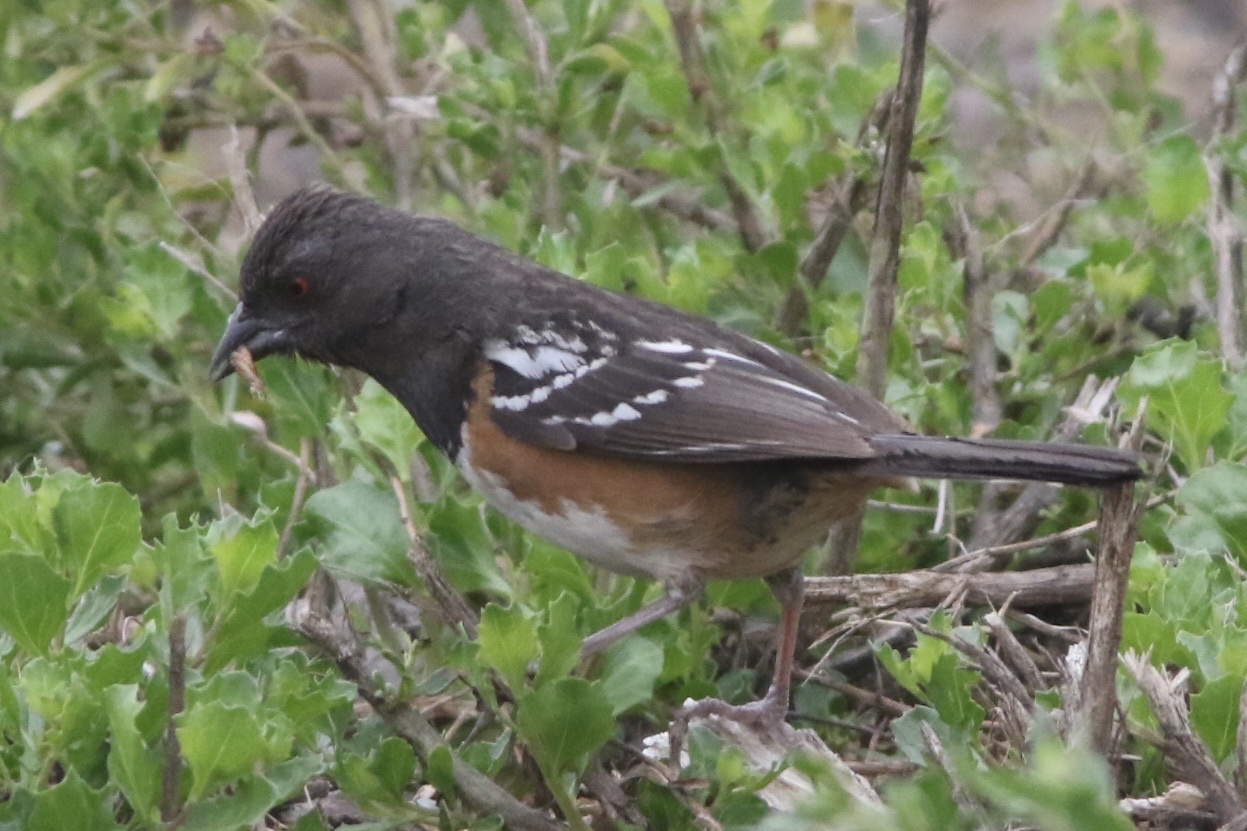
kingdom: Animalia
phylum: Chordata
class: Aves
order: Passeriformes
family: Passerellidae
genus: Pipilo
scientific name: Pipilo maculatus
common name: Spotted towhee
